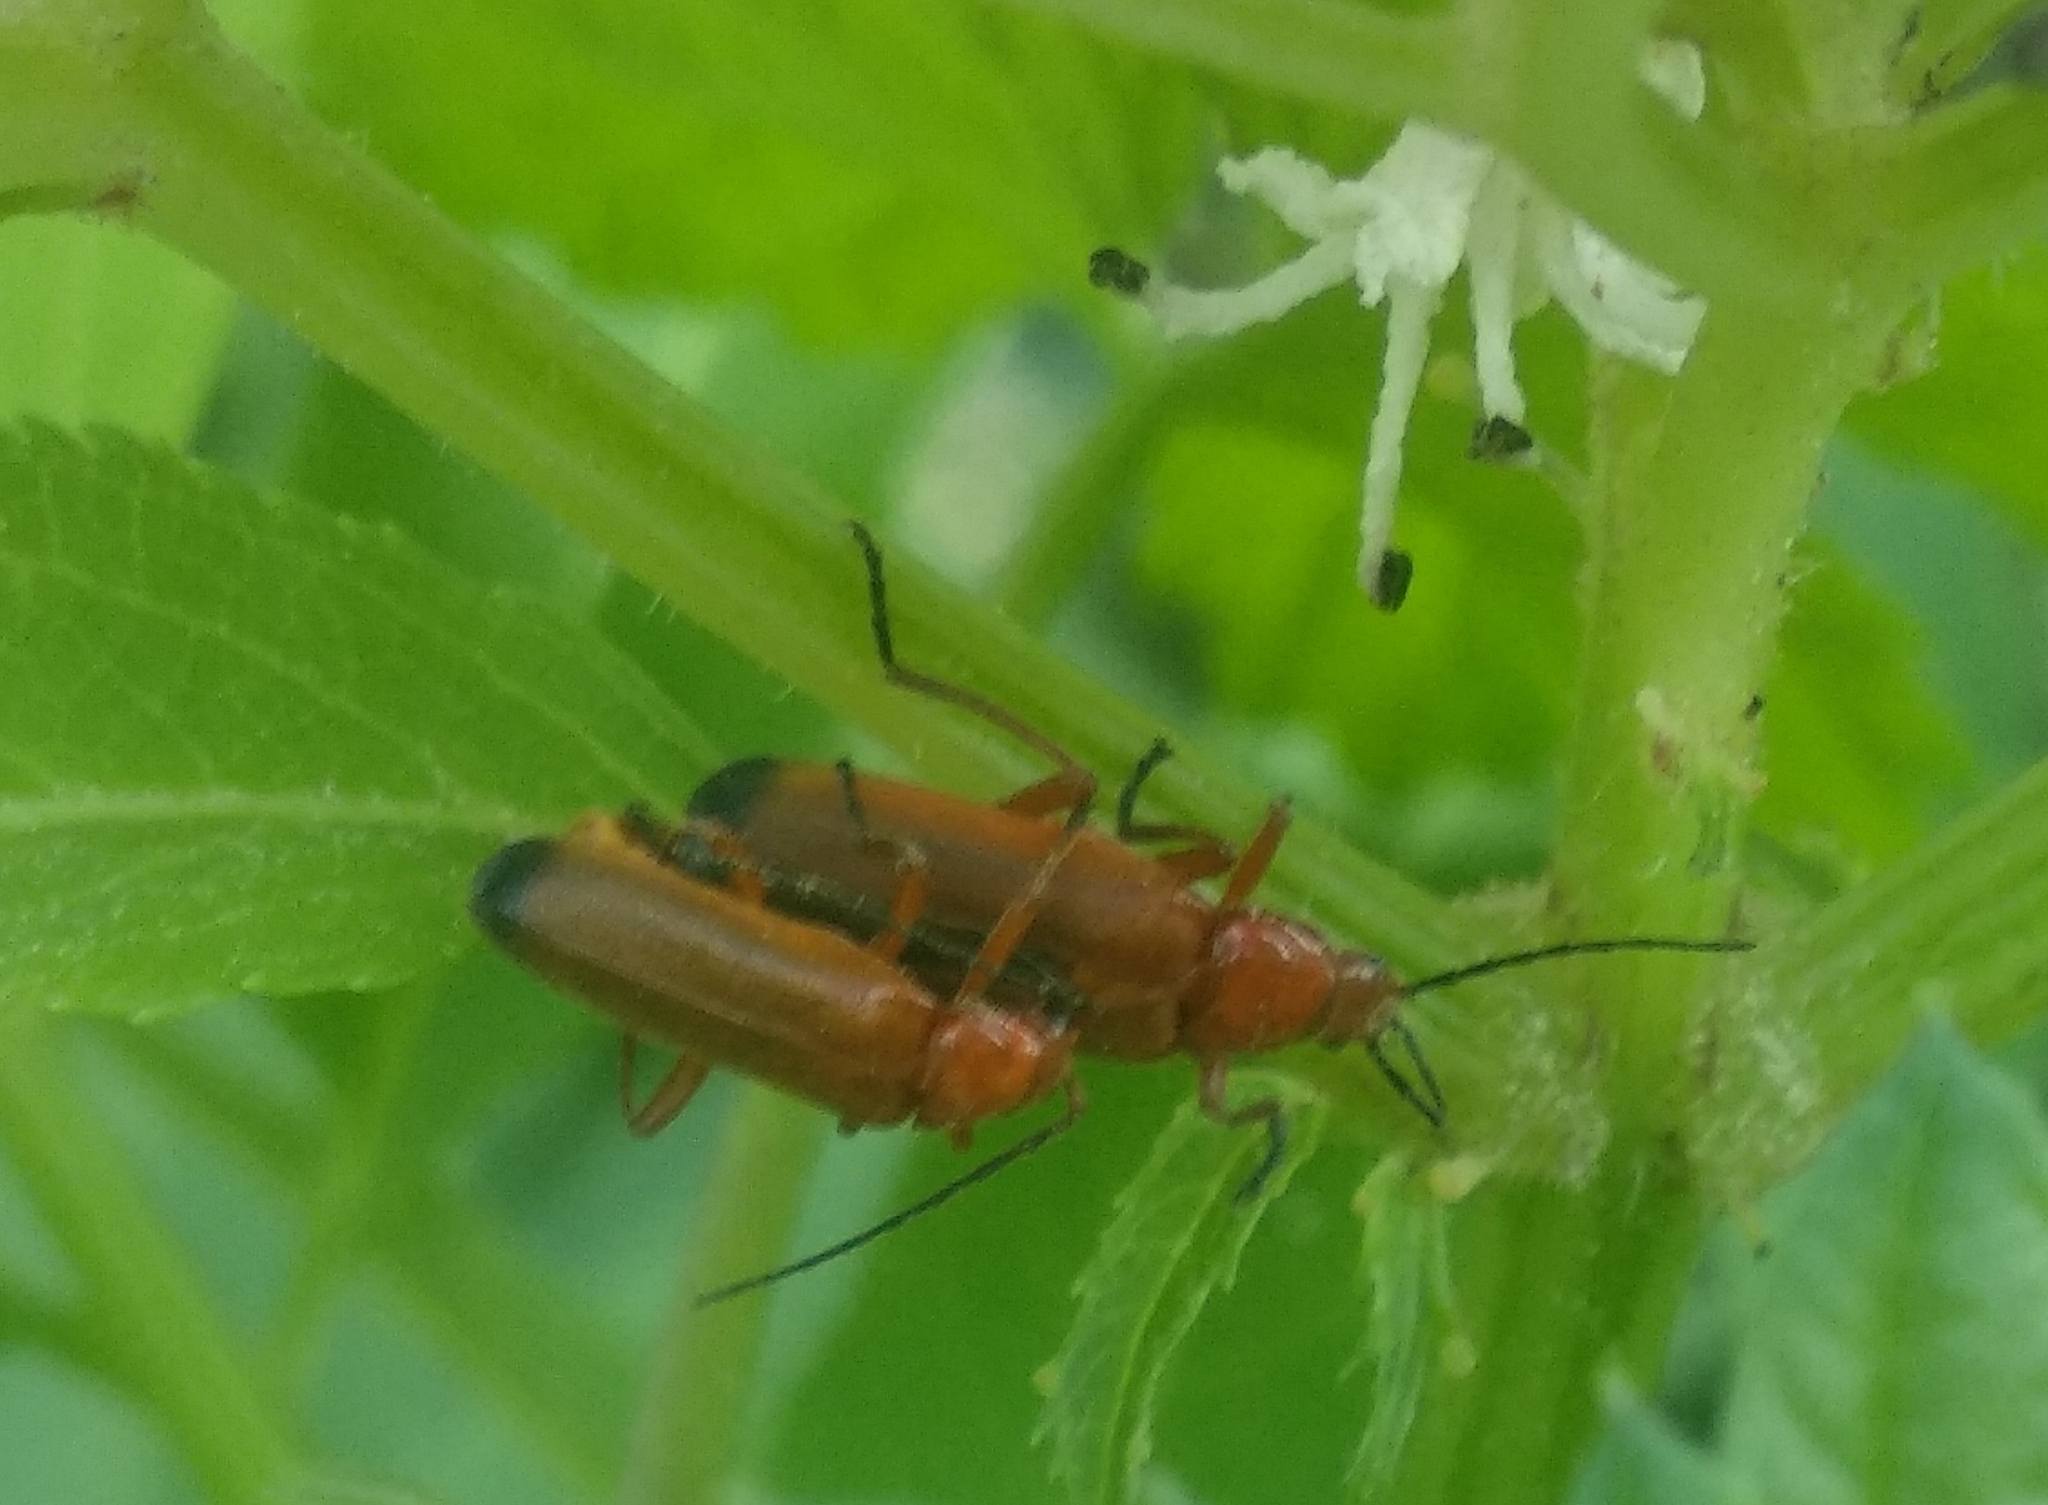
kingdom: Animalia
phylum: Arthropoda
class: Insecta
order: Coleoptera
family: Cantharidae
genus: Rhagonycha
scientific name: Rhagonycha fulva
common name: Common red soldier beetle
